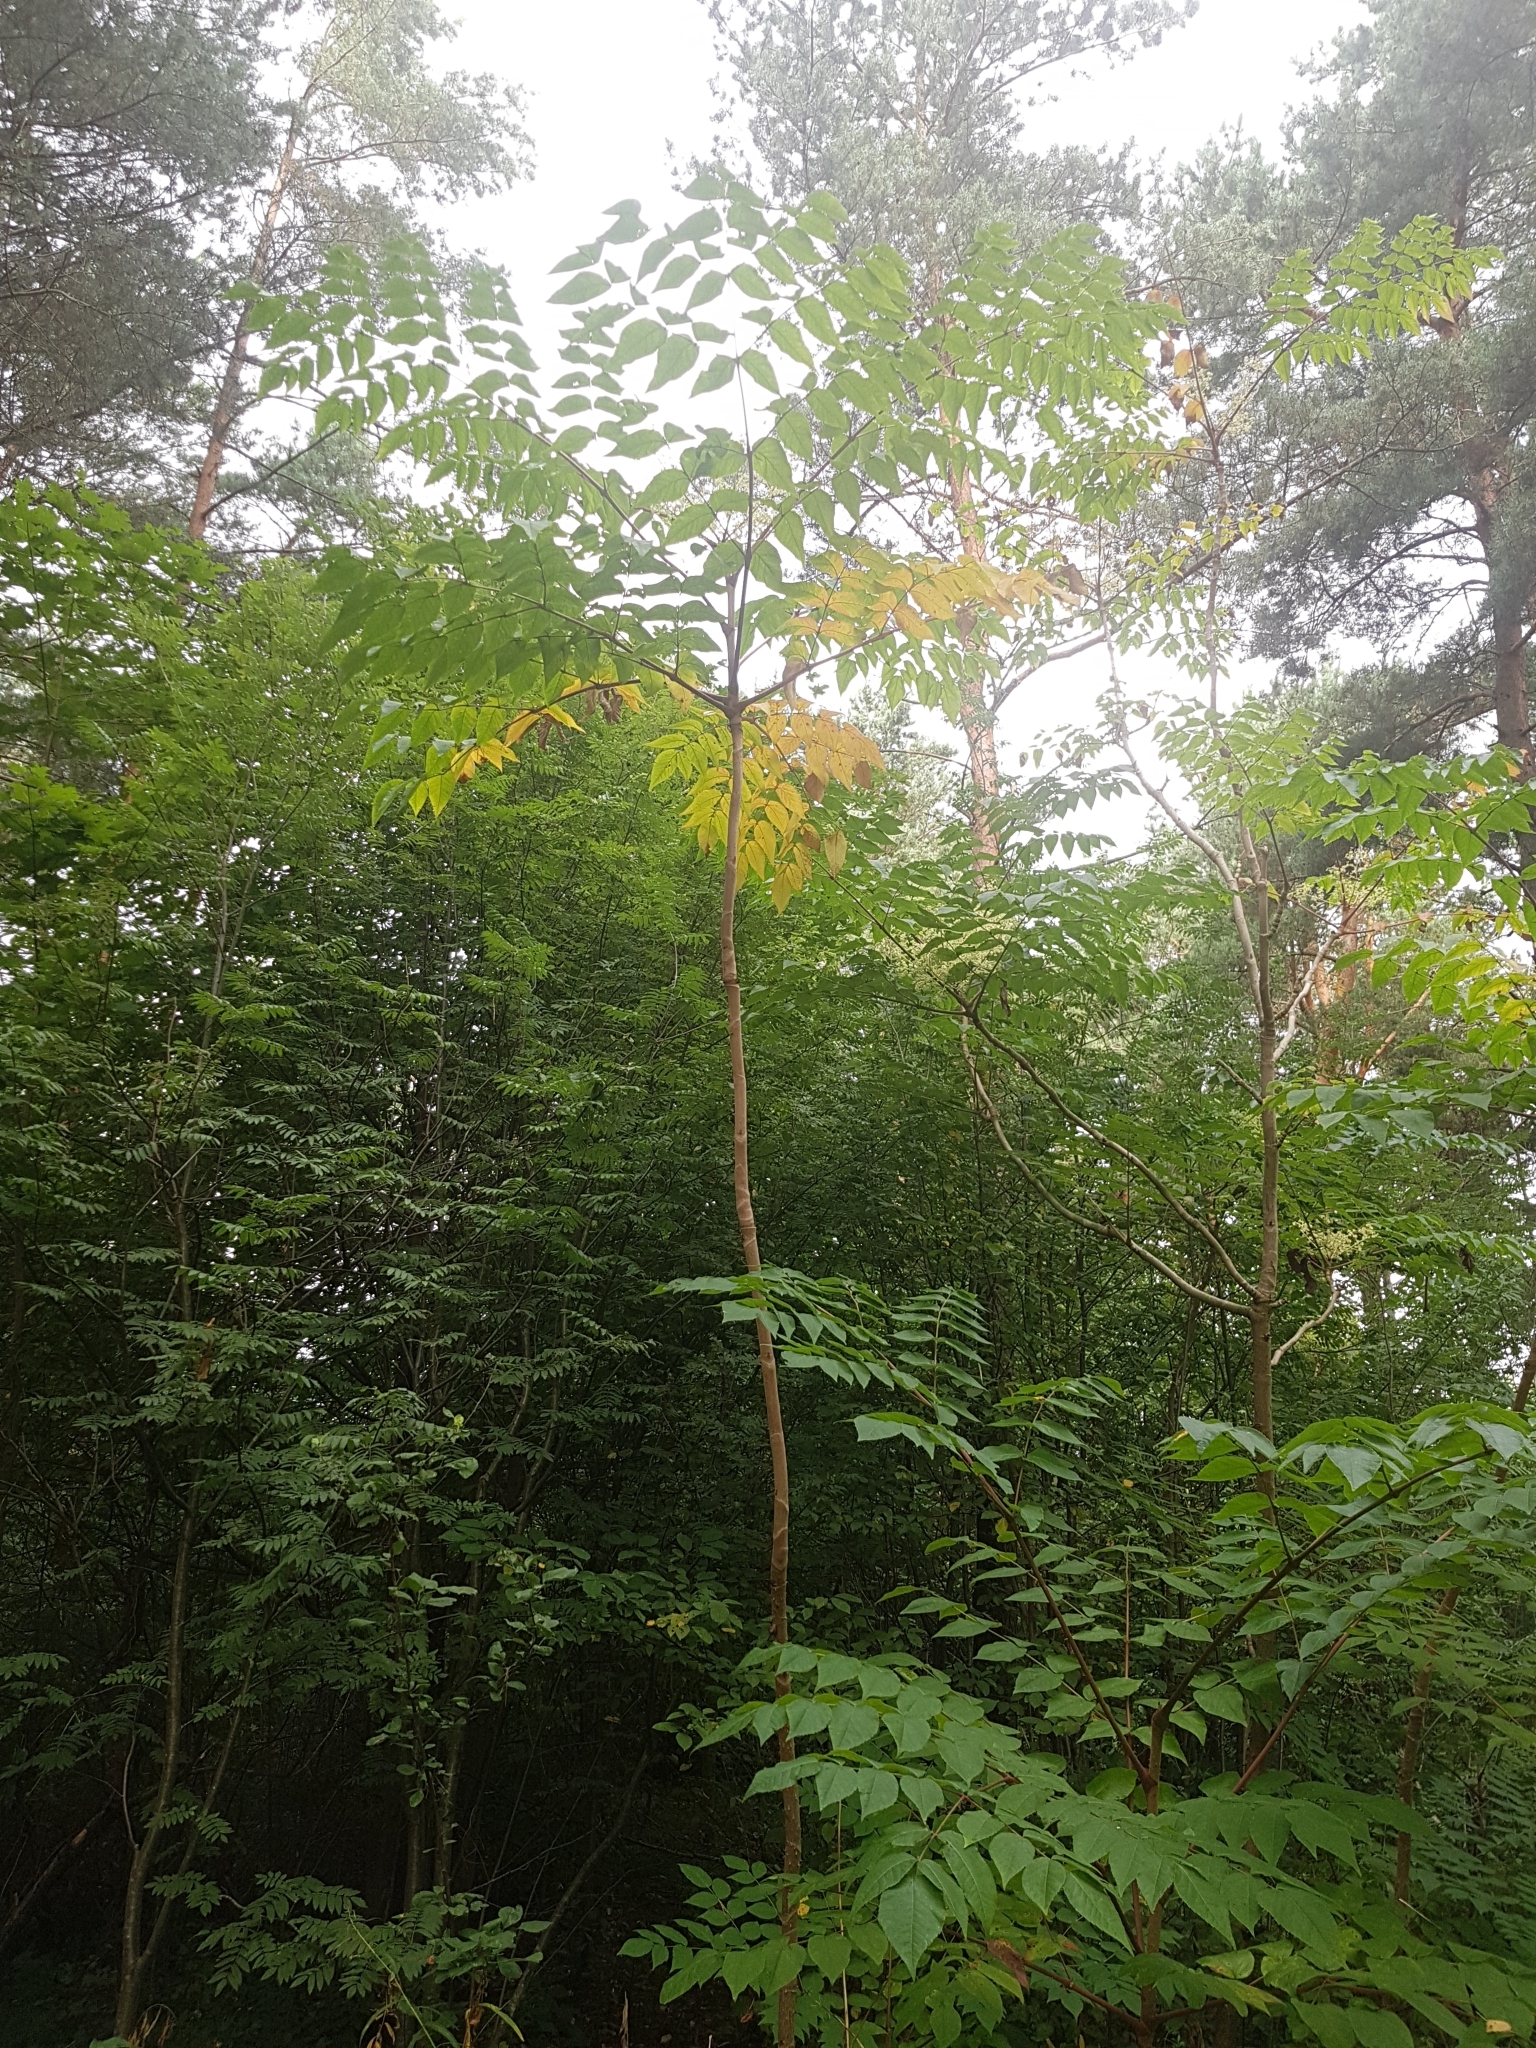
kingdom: Plantae
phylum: Tracheophyta
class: Magnoliopsida
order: Apiales
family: Araliaceae
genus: Aralia
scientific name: Aralia elata
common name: Japanese angelica-tree
